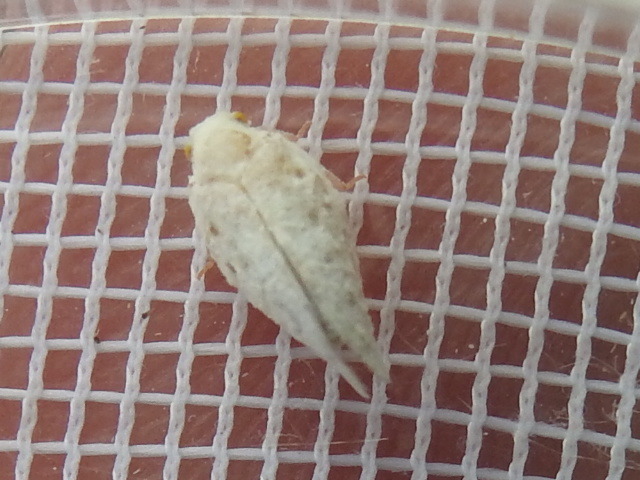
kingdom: Animalia
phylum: Arthropoda
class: Insecta
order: Hemiptera
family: Flatidae
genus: Metcalfa
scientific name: Metcalfa pruinosa
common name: Citrus flatid planthopper
